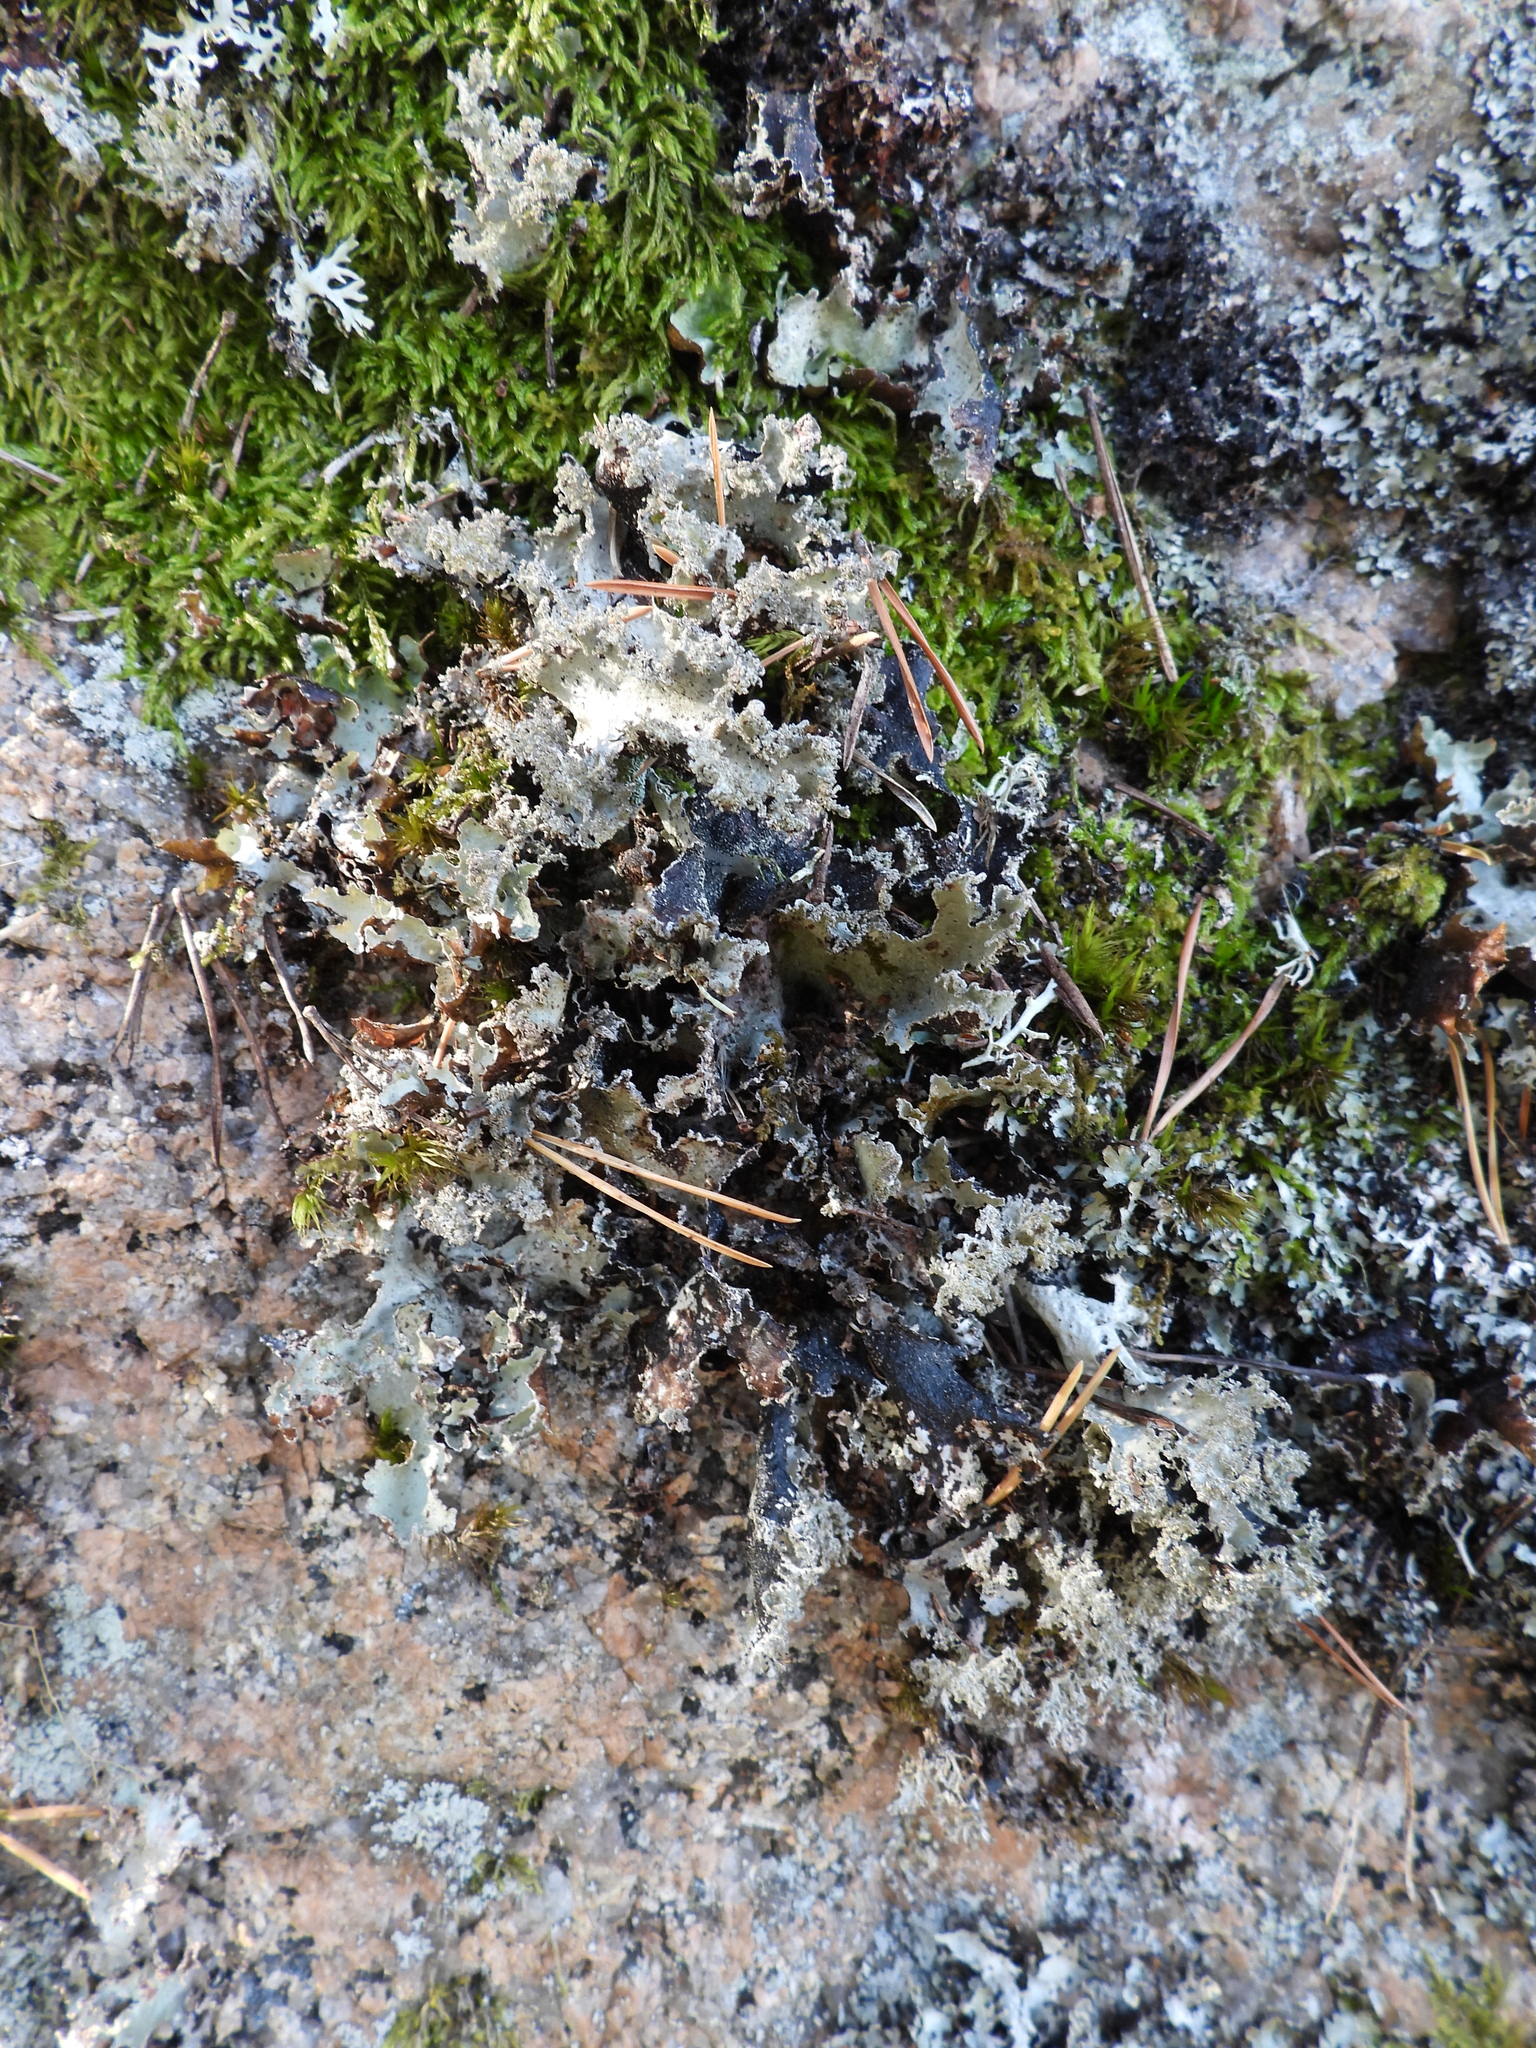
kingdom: Fungi
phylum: Ascomycota
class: Lecanoromycetes
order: Lecanorales
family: Parmeliaceae
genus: Platismatia
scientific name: Platismatia glauca
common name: Varied rag lichen
